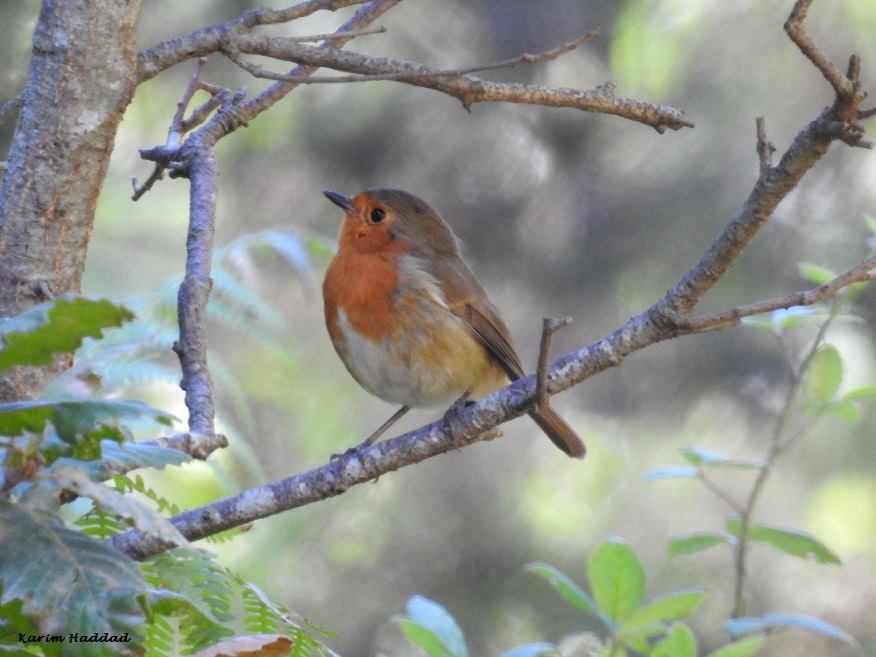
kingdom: Animalia
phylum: Chordata
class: Aves
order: Passeriformes
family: Muscicapidae
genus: Erithacus
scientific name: Erithacus rubecula
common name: European robin
